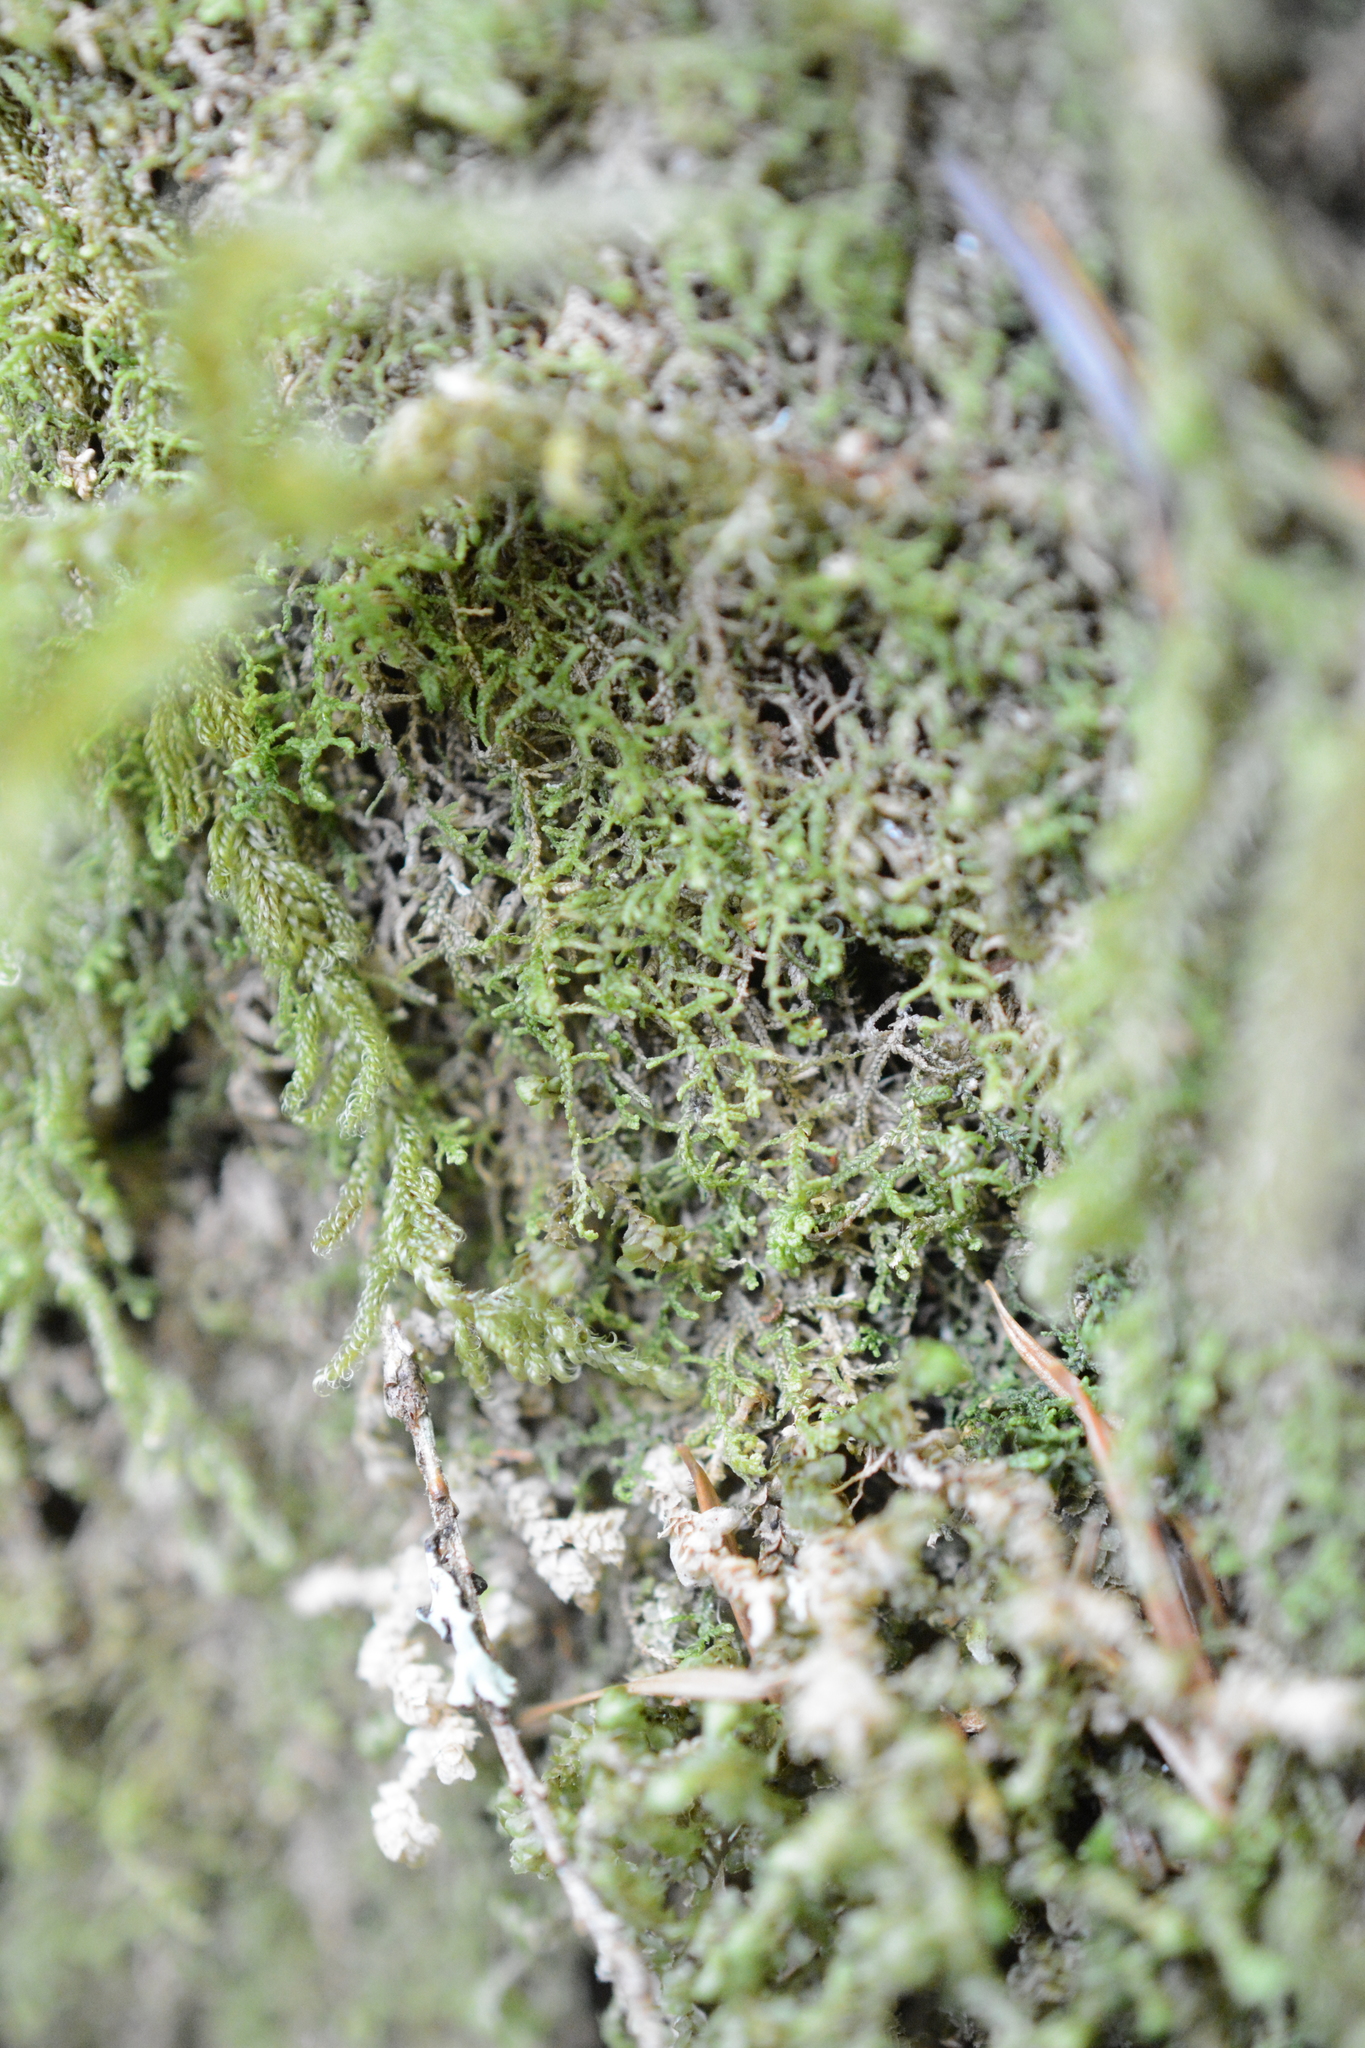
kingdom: Plantae
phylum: Marchantiophyta
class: Jungermanniopsida
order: Jungermanniales
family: Lepidoziaceae
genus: Lepidozia
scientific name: Lepidozia reptans
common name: Creeping fingerwort
